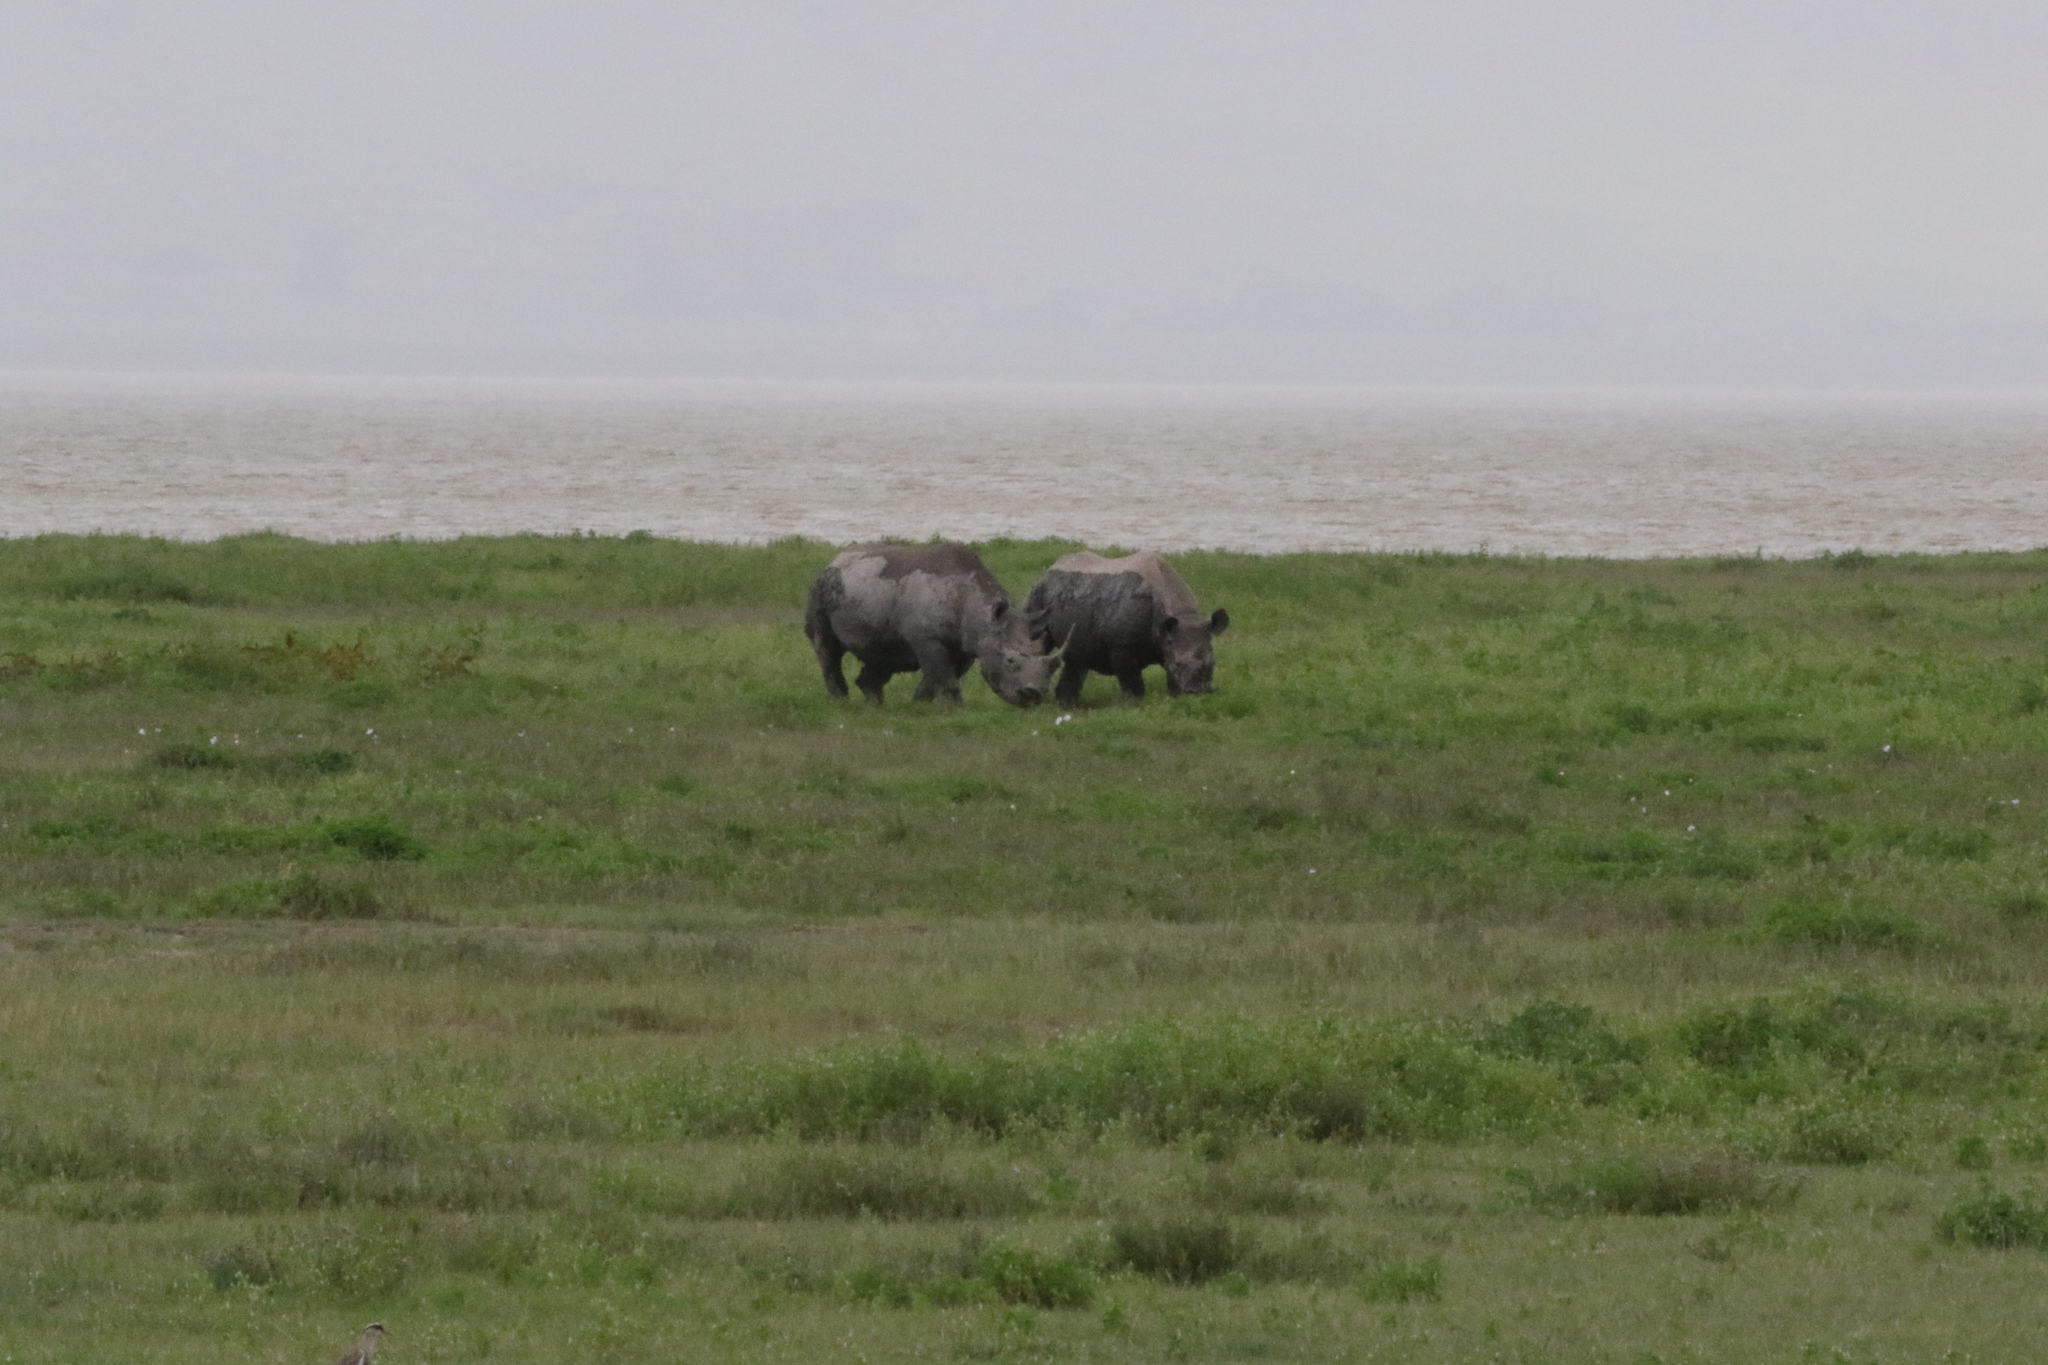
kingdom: Animalia
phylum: Chordata
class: Mammalia
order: Perissodactyla
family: Rhinocerotidae
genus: Diceros
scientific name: Diceros bicornis
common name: Black rhinoceros
